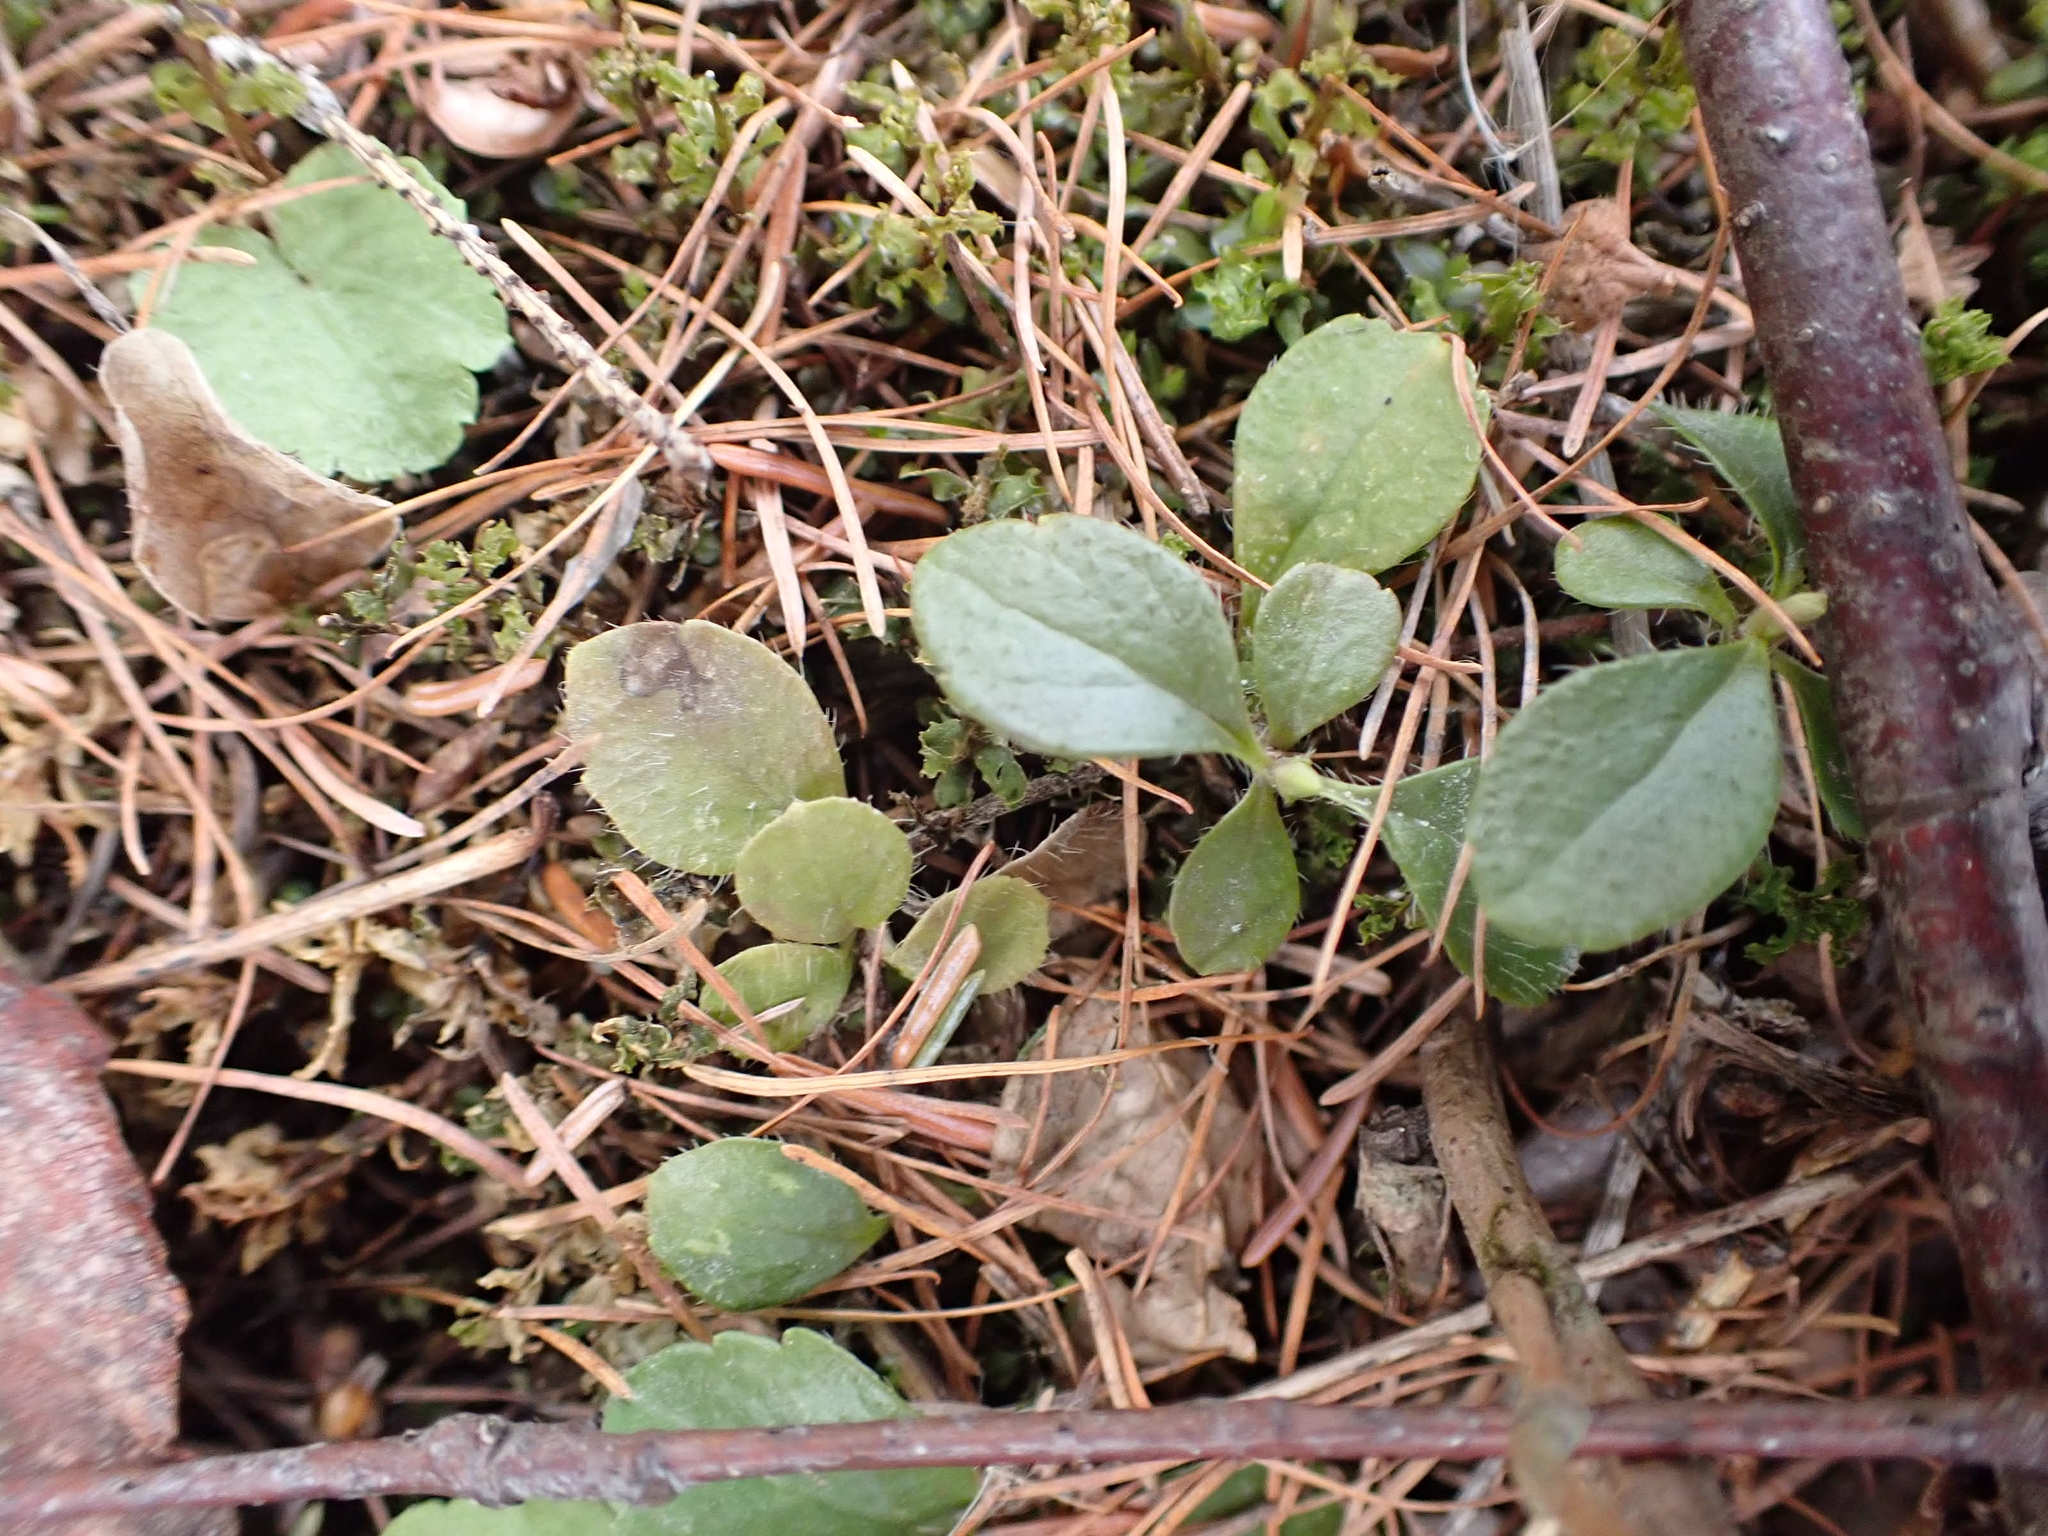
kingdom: Plantae
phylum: Tracheophyta
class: Magnoliopsida
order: Dipsacales
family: Caprifoliaceae
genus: Linnaea
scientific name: Linnaea borealis
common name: Twinflower
